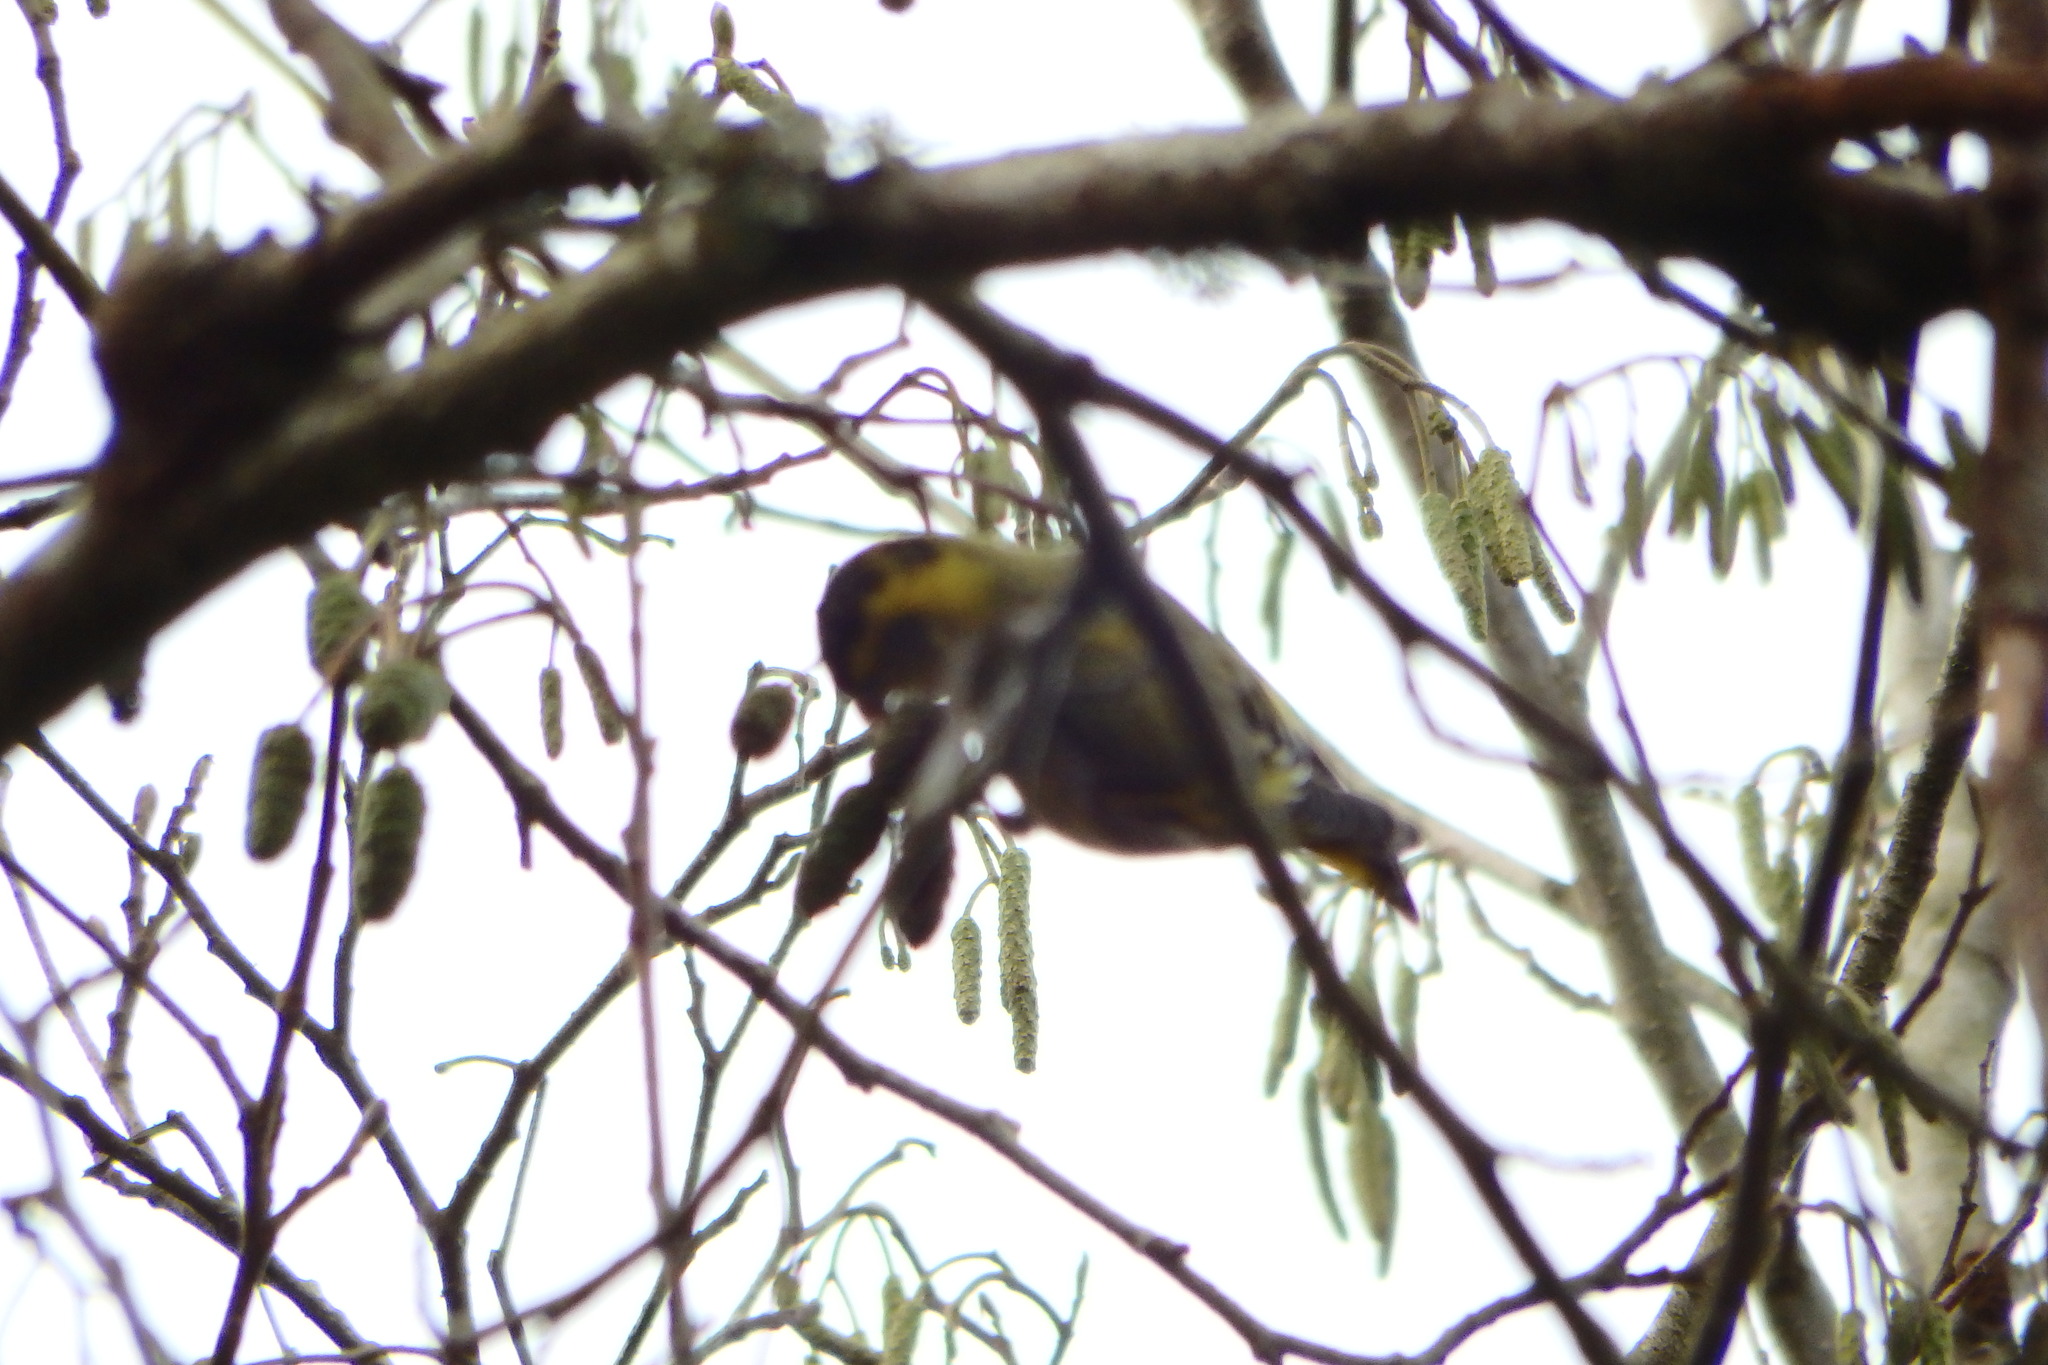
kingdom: Animalia
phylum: Chordata
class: Aves
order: Passeriformes
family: Fringillidae
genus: Spinus
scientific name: Spinus spinus
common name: Eurasian siskin
